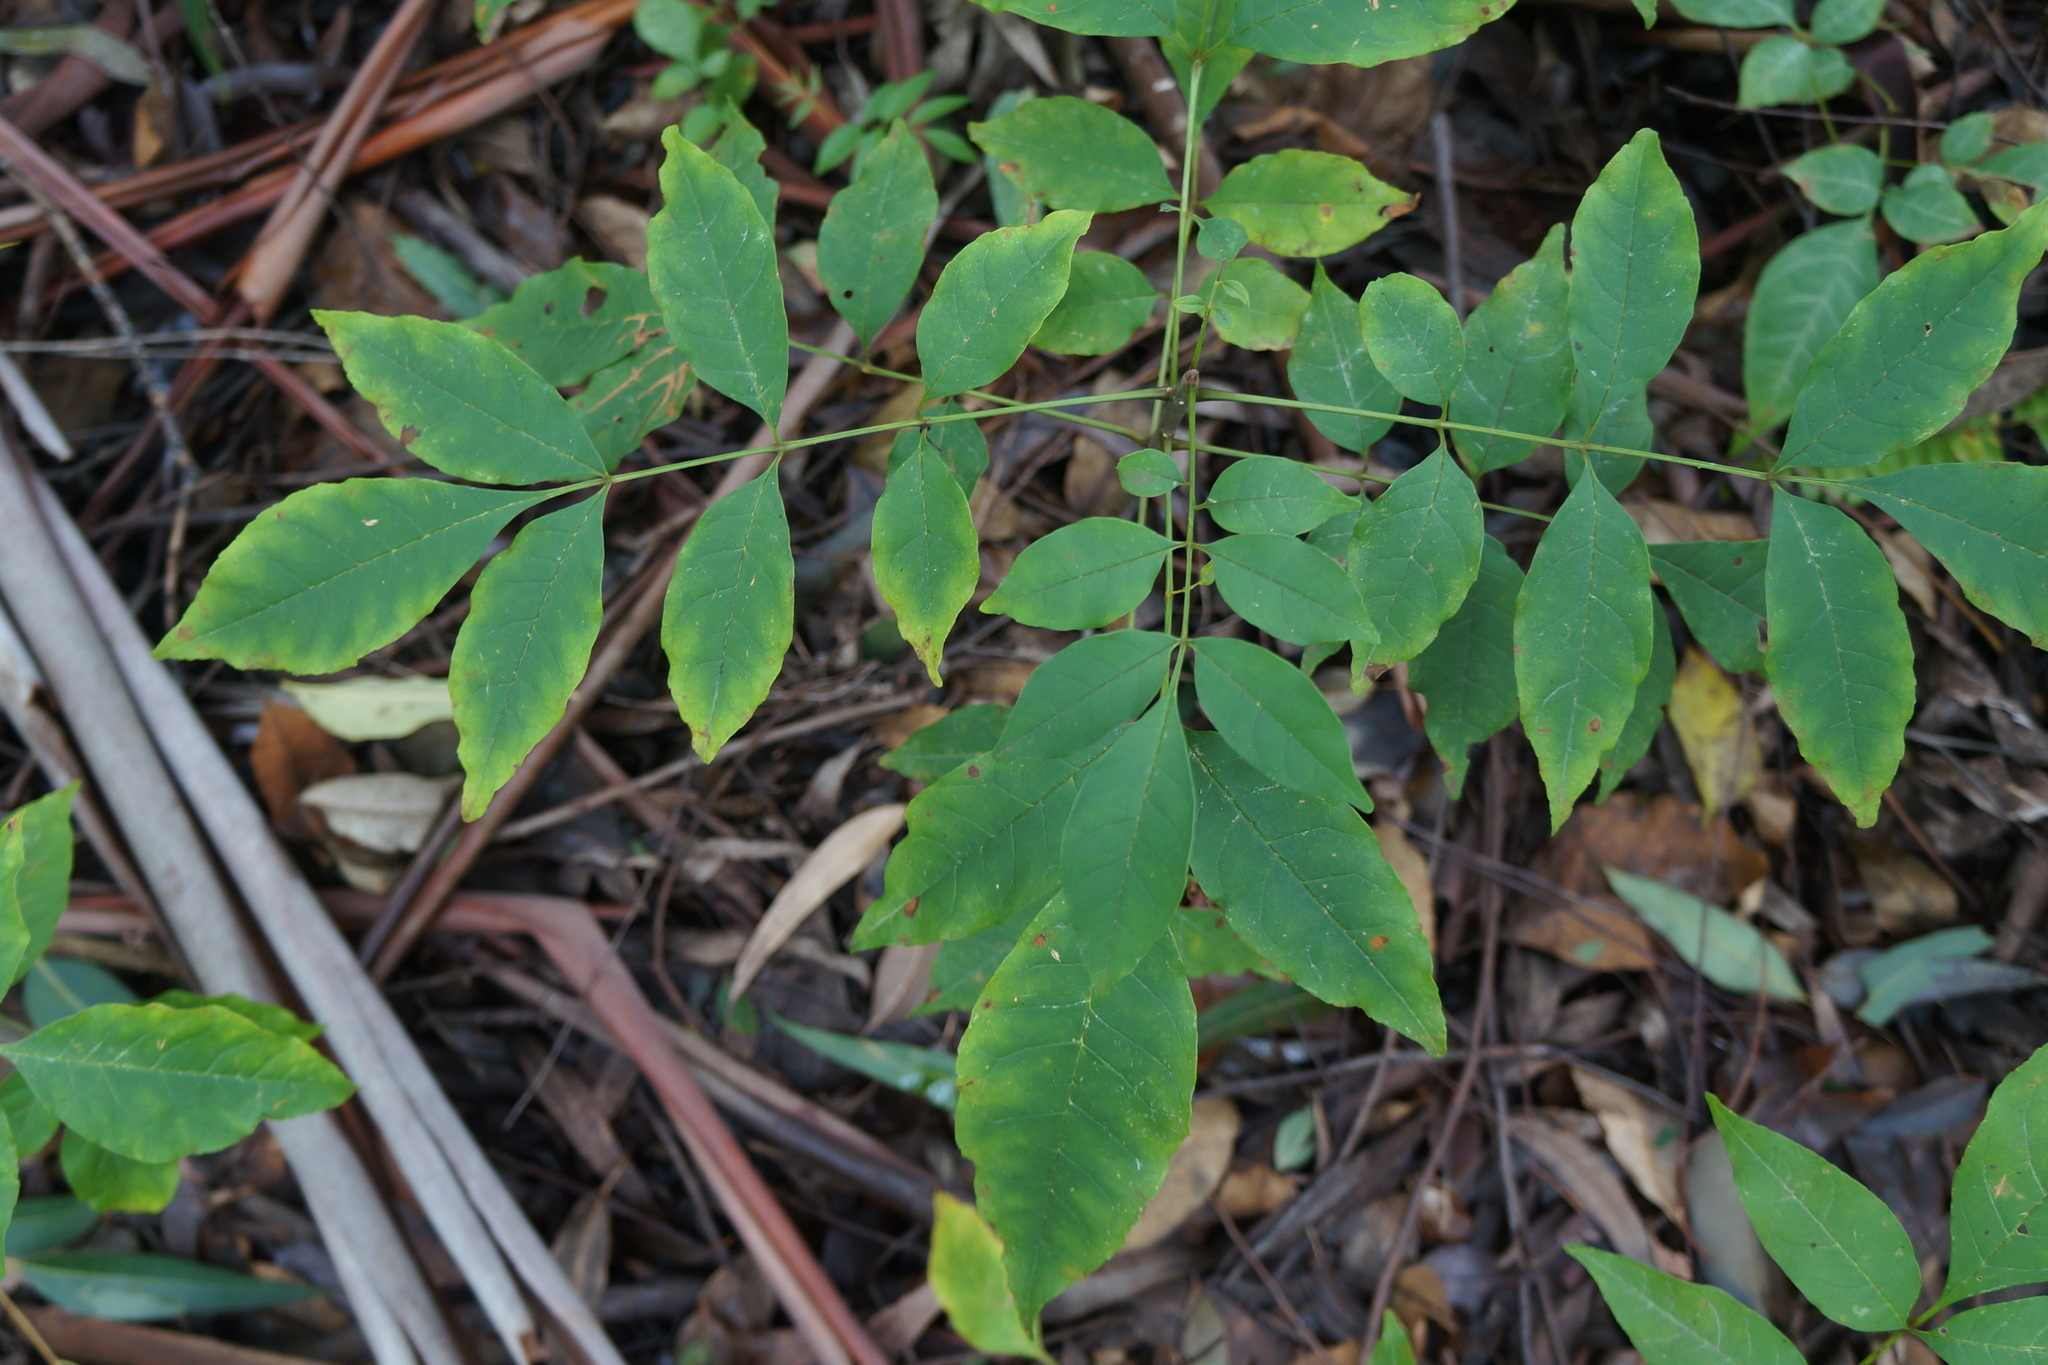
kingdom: Plantae
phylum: Tracheophyta
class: Magnoliopsida
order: Lamiales
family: Oleaceae
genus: Fraxinus
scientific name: Fraxinus uhdei
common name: Shamel ash
